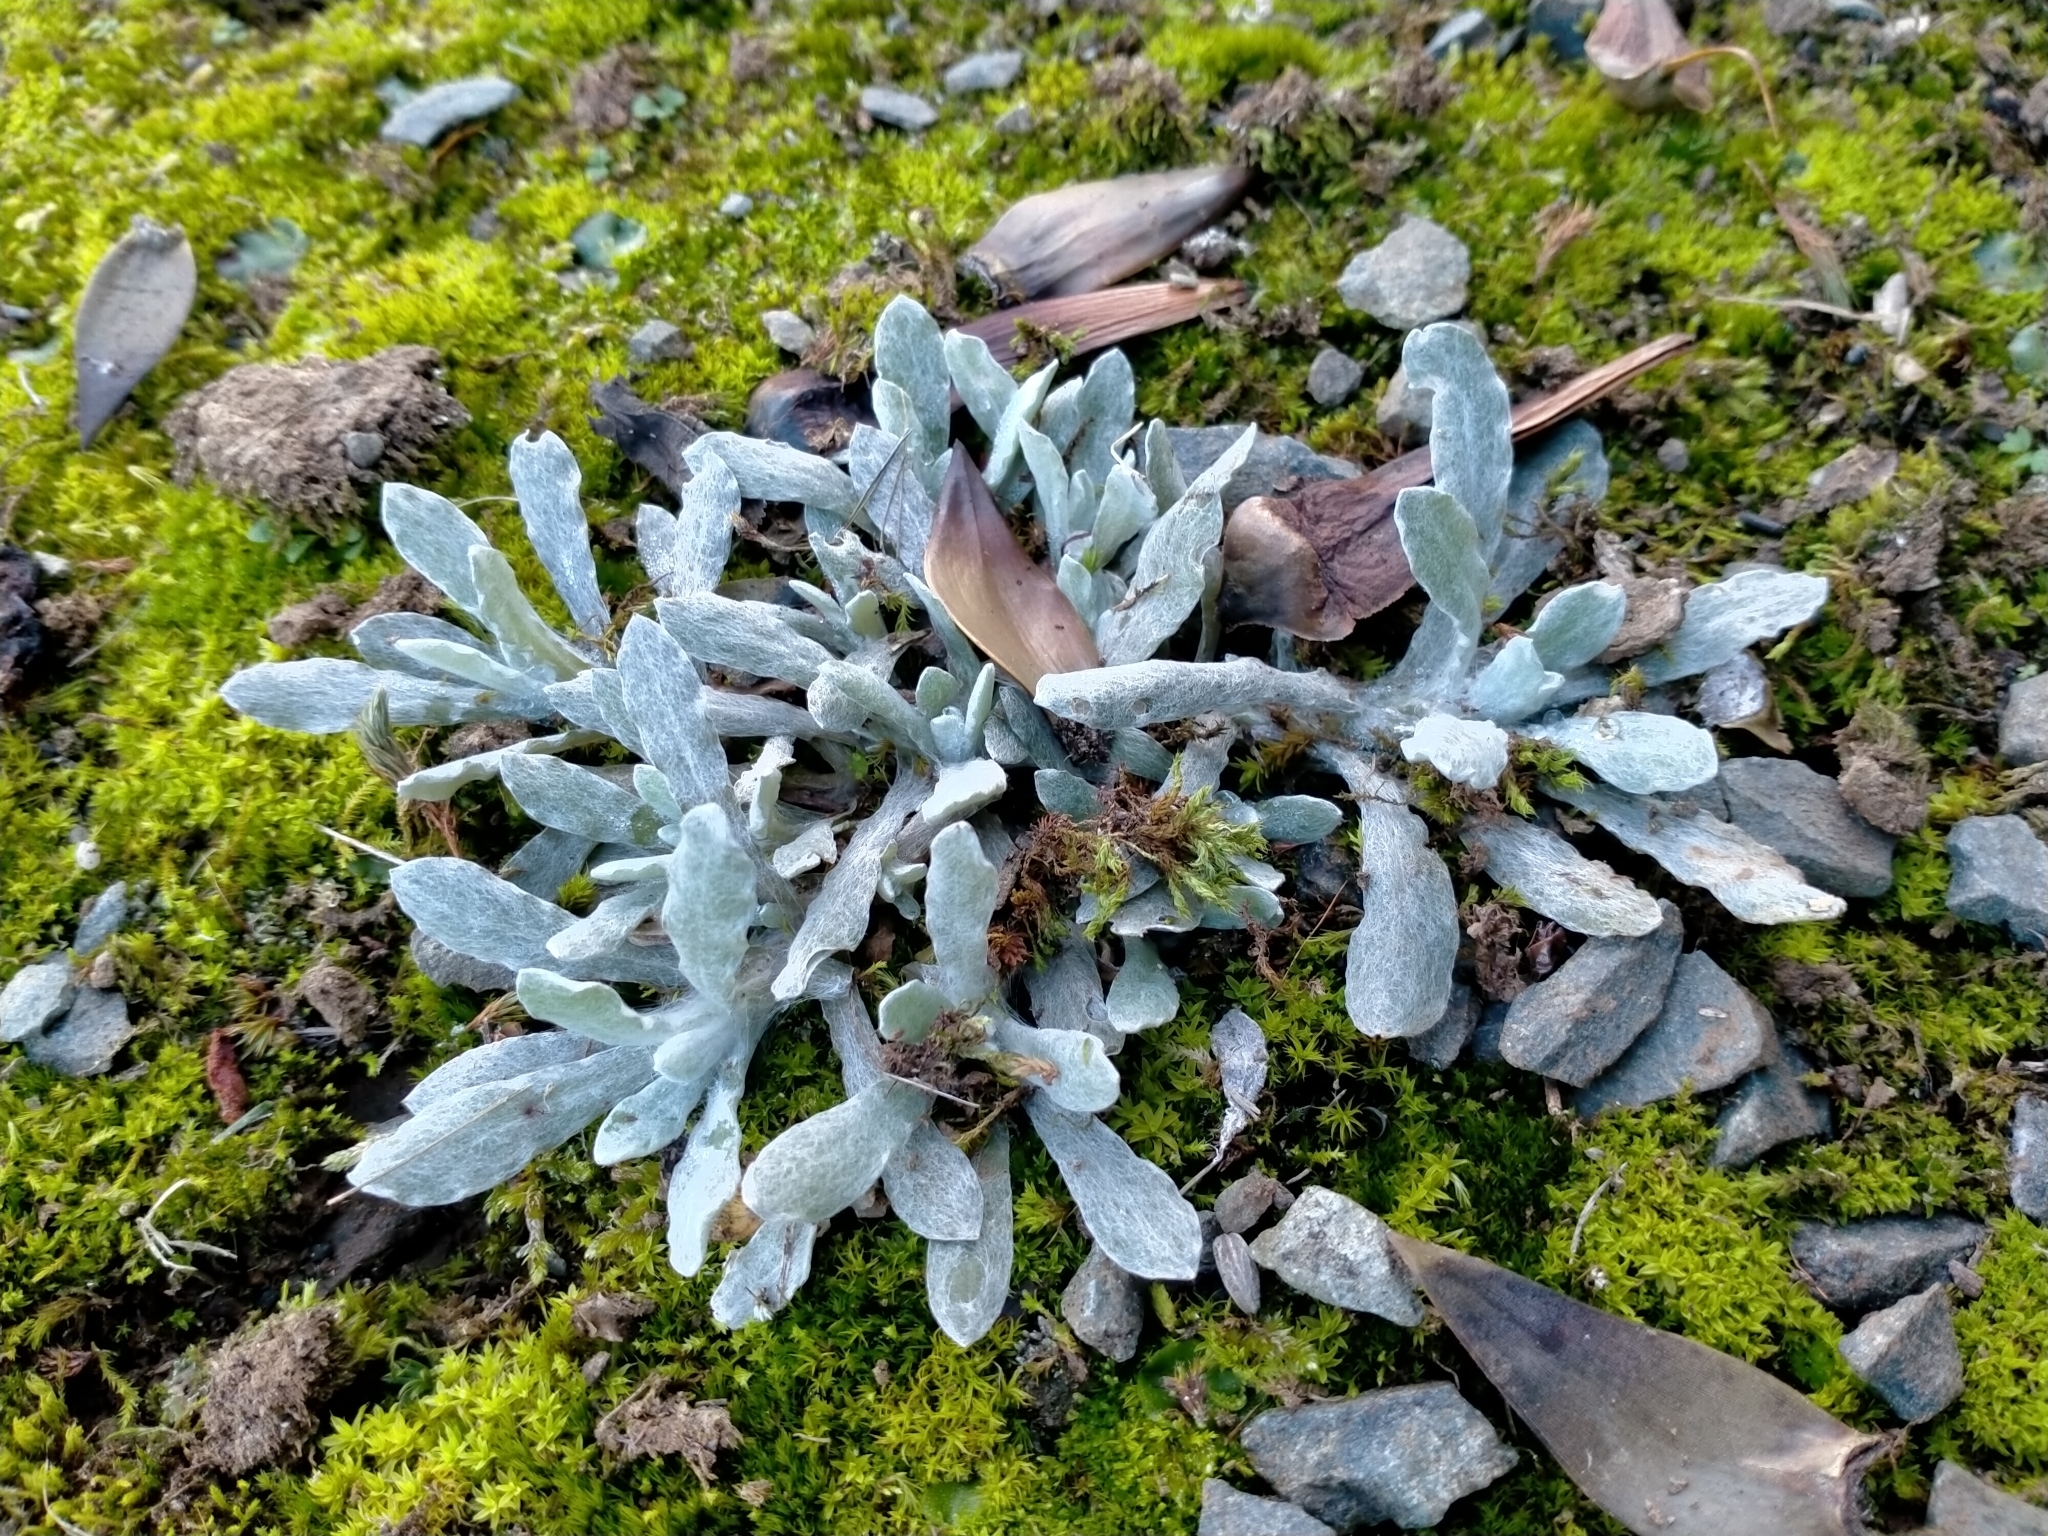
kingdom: Plantae
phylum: Tracheophyta
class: Magnoliopsida
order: Asterales
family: Asteraceae
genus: Helichrysum
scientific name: Helichrysum luteoalbum
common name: Daisy
